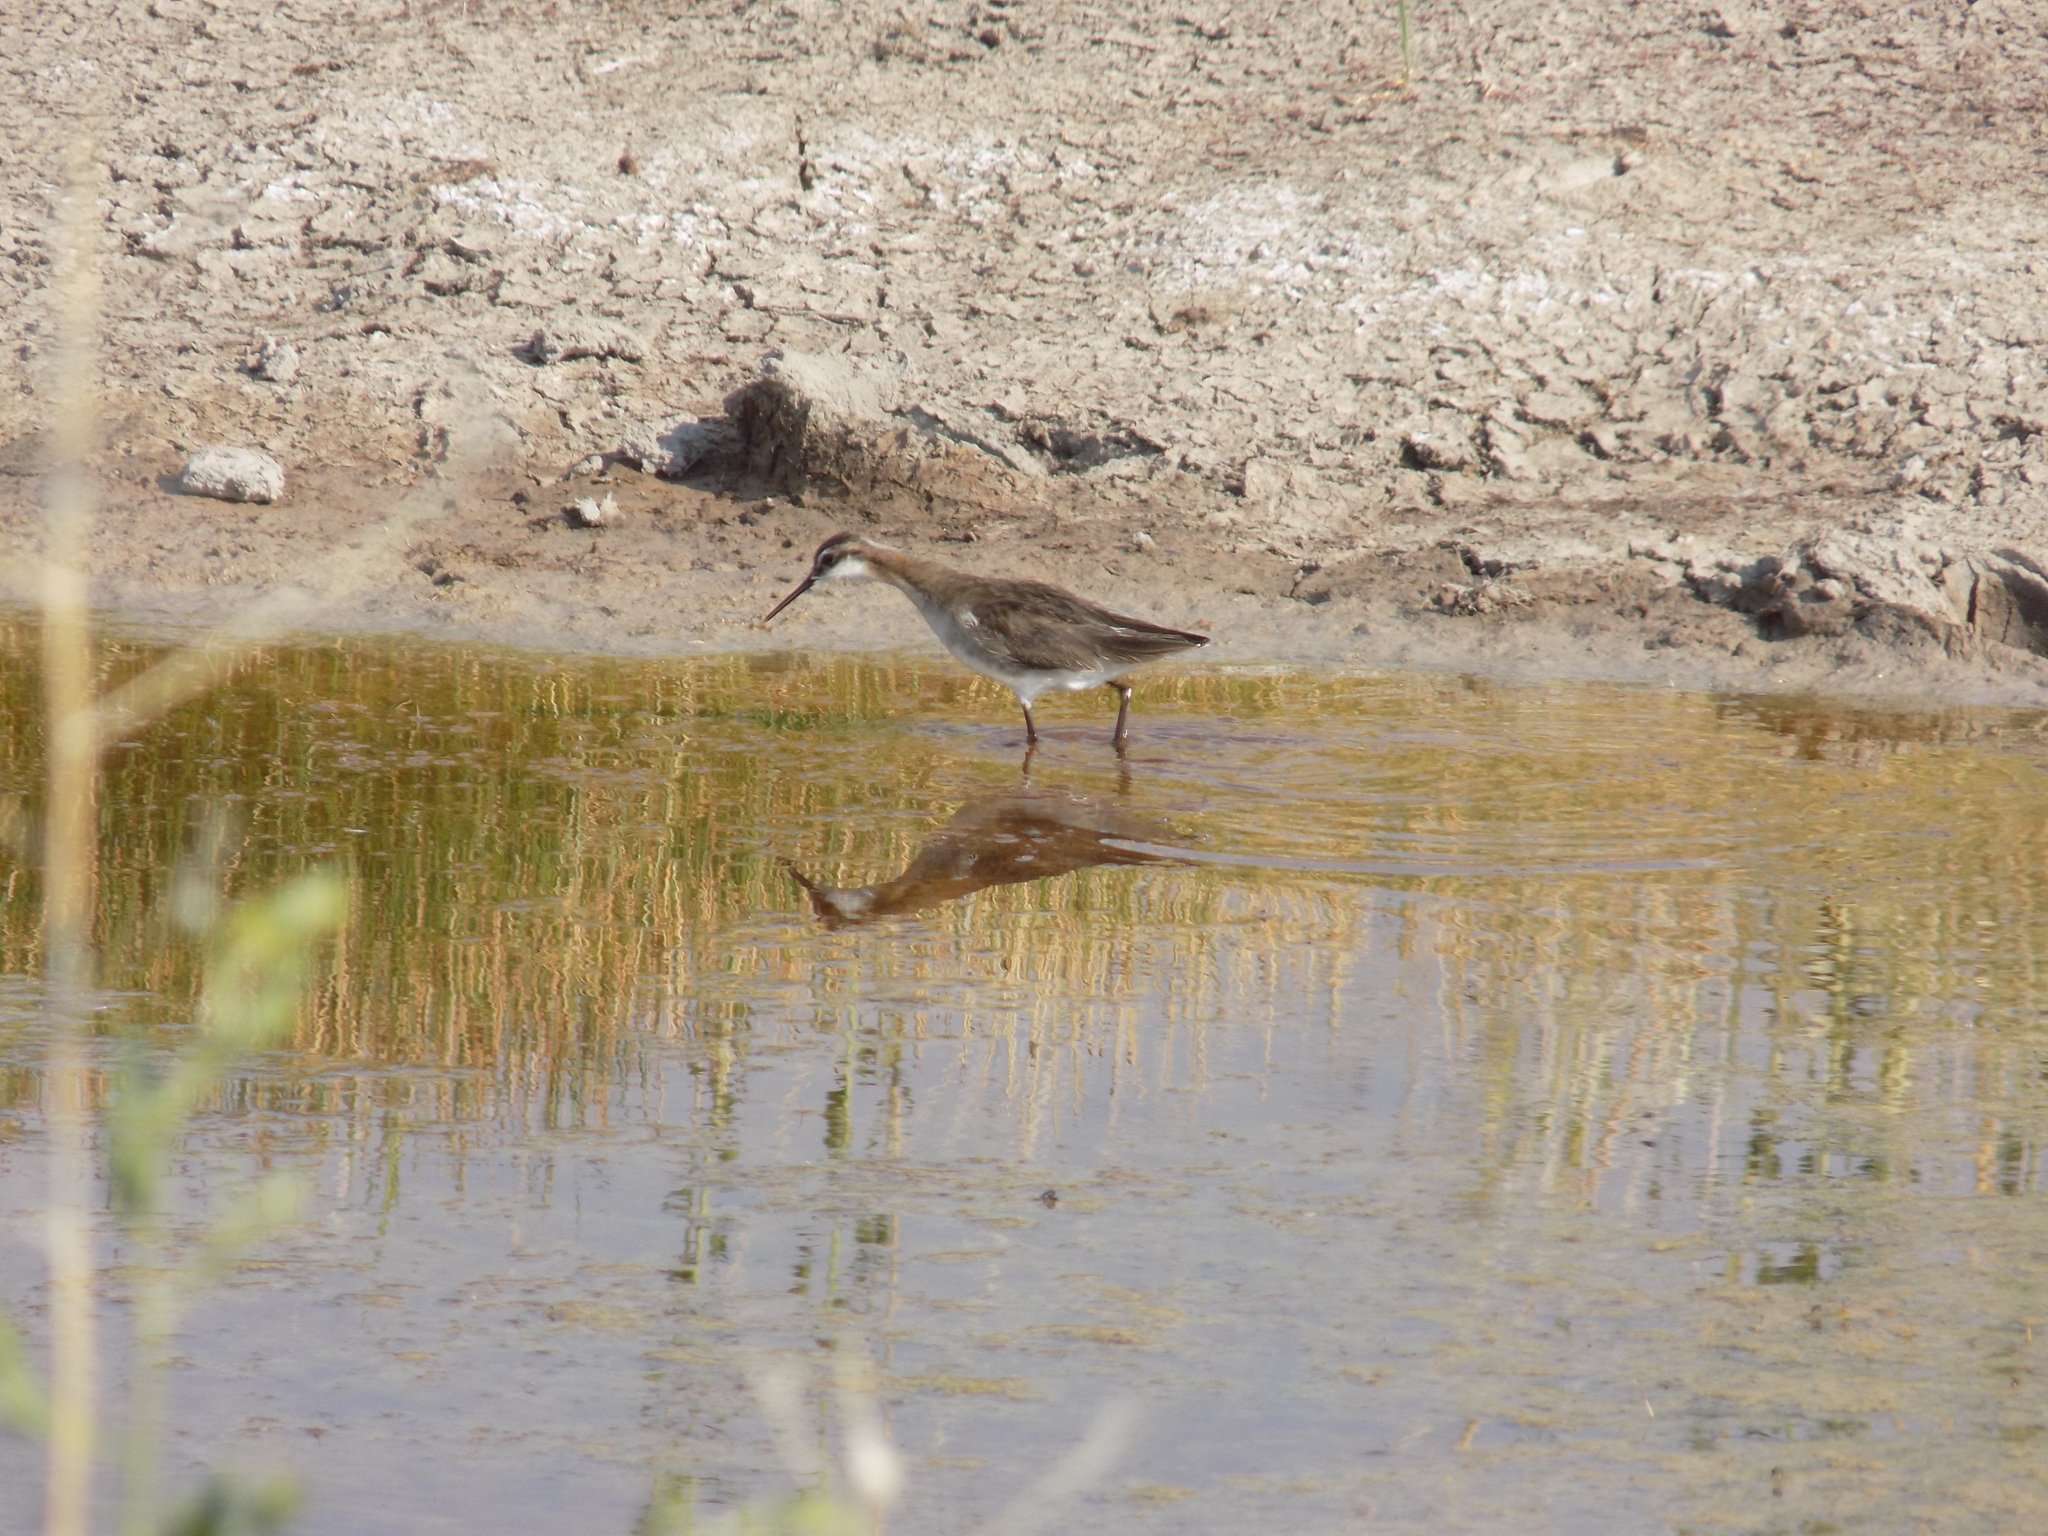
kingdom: Animalia
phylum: Chordata
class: Aves
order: Charadriiformes
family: Scolopacidae
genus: Phalaropus
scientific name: Phalaropus tricolor
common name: Wilson's phalarope
